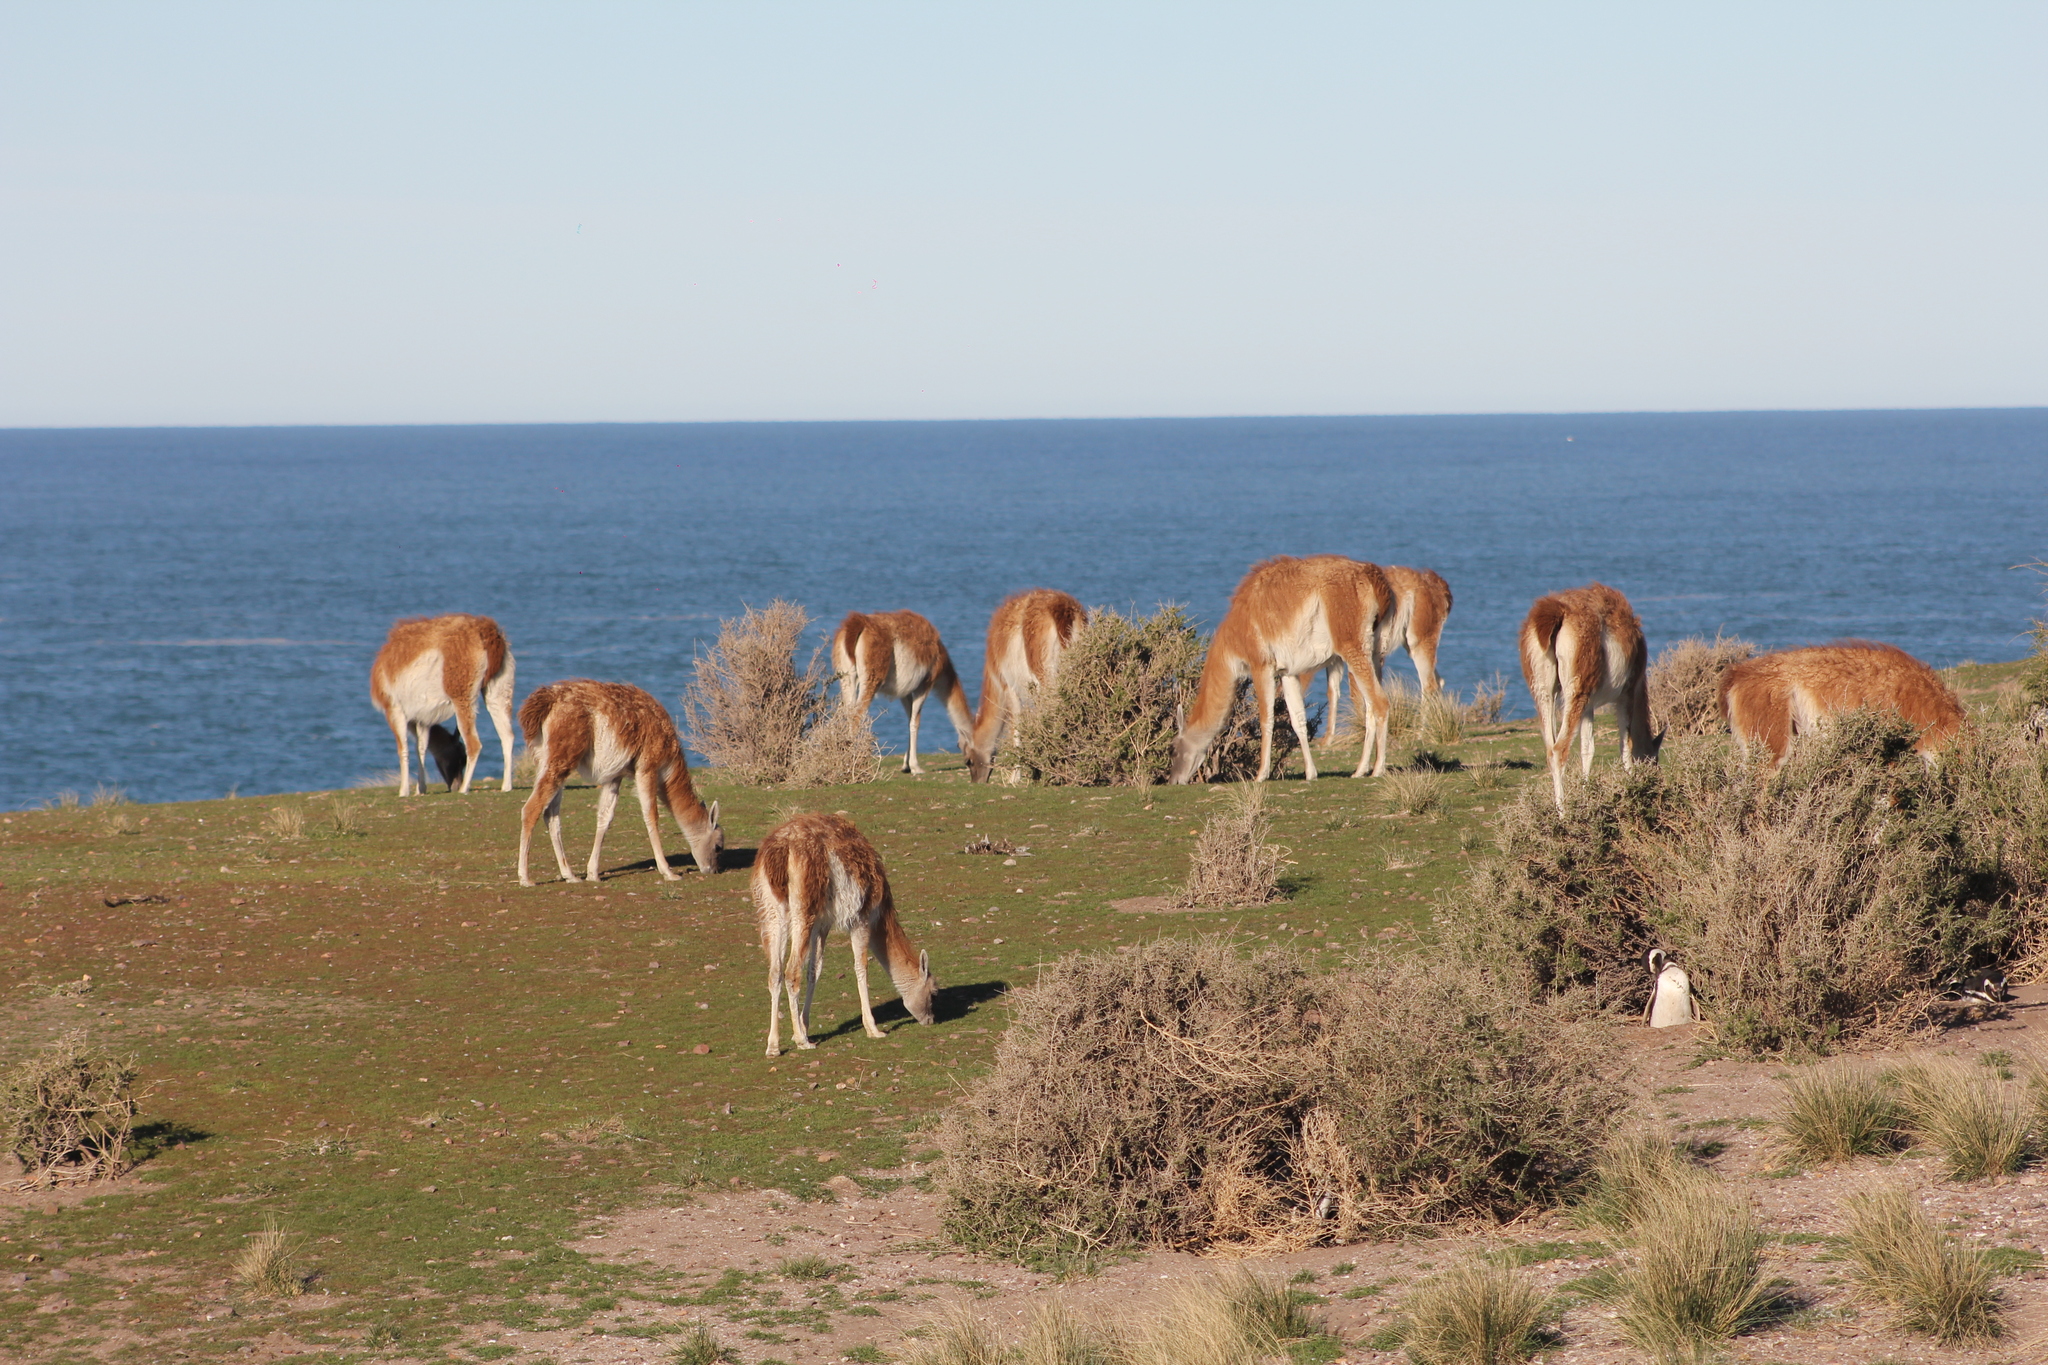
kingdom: Animalia
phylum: Chordata
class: Mammalia
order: Artiodactyla
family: Camelidae
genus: Lama
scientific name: Lama glama
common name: Llama
